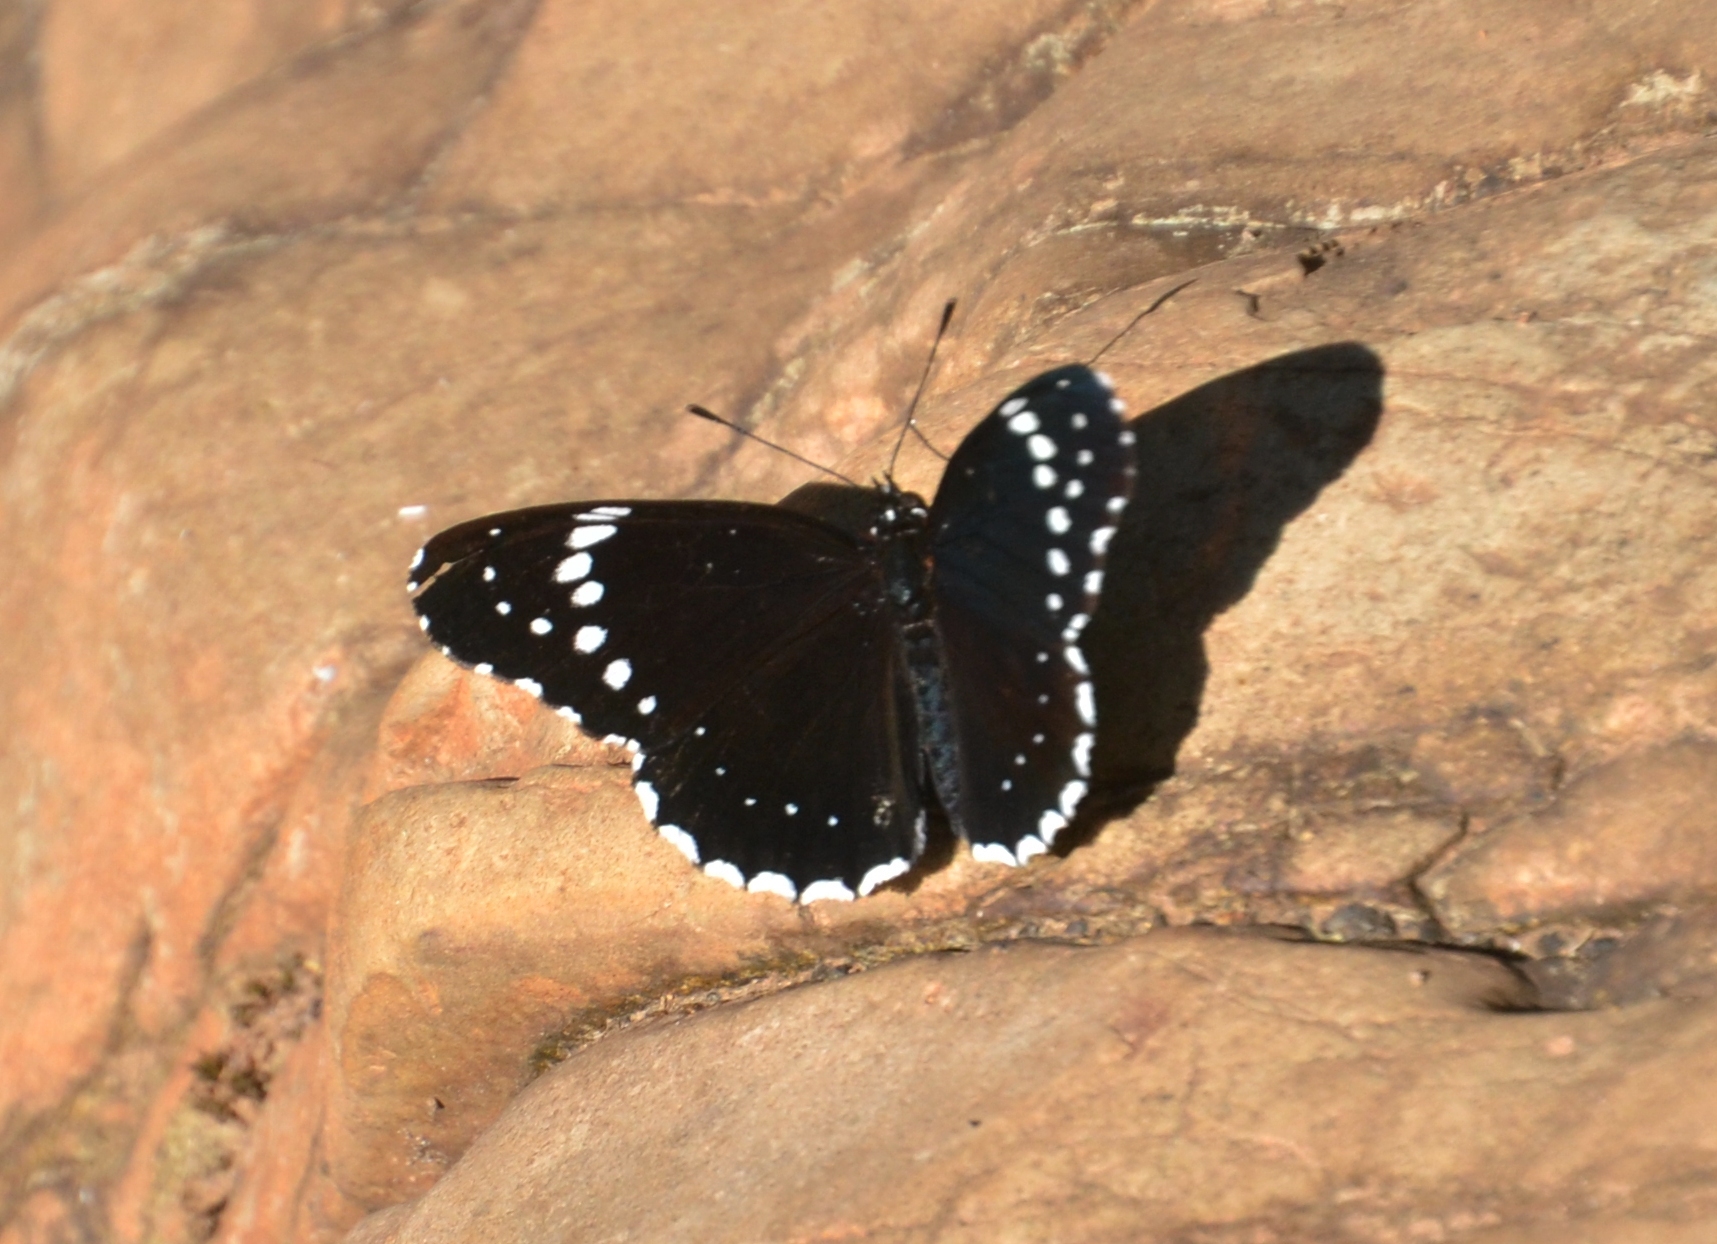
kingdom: Animalia
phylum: Arthropoda
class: Insecta
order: Lepidoptera
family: Nymphalidae
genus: Chlosyne
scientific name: Chlosyne hippodrome
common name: Simple patch
